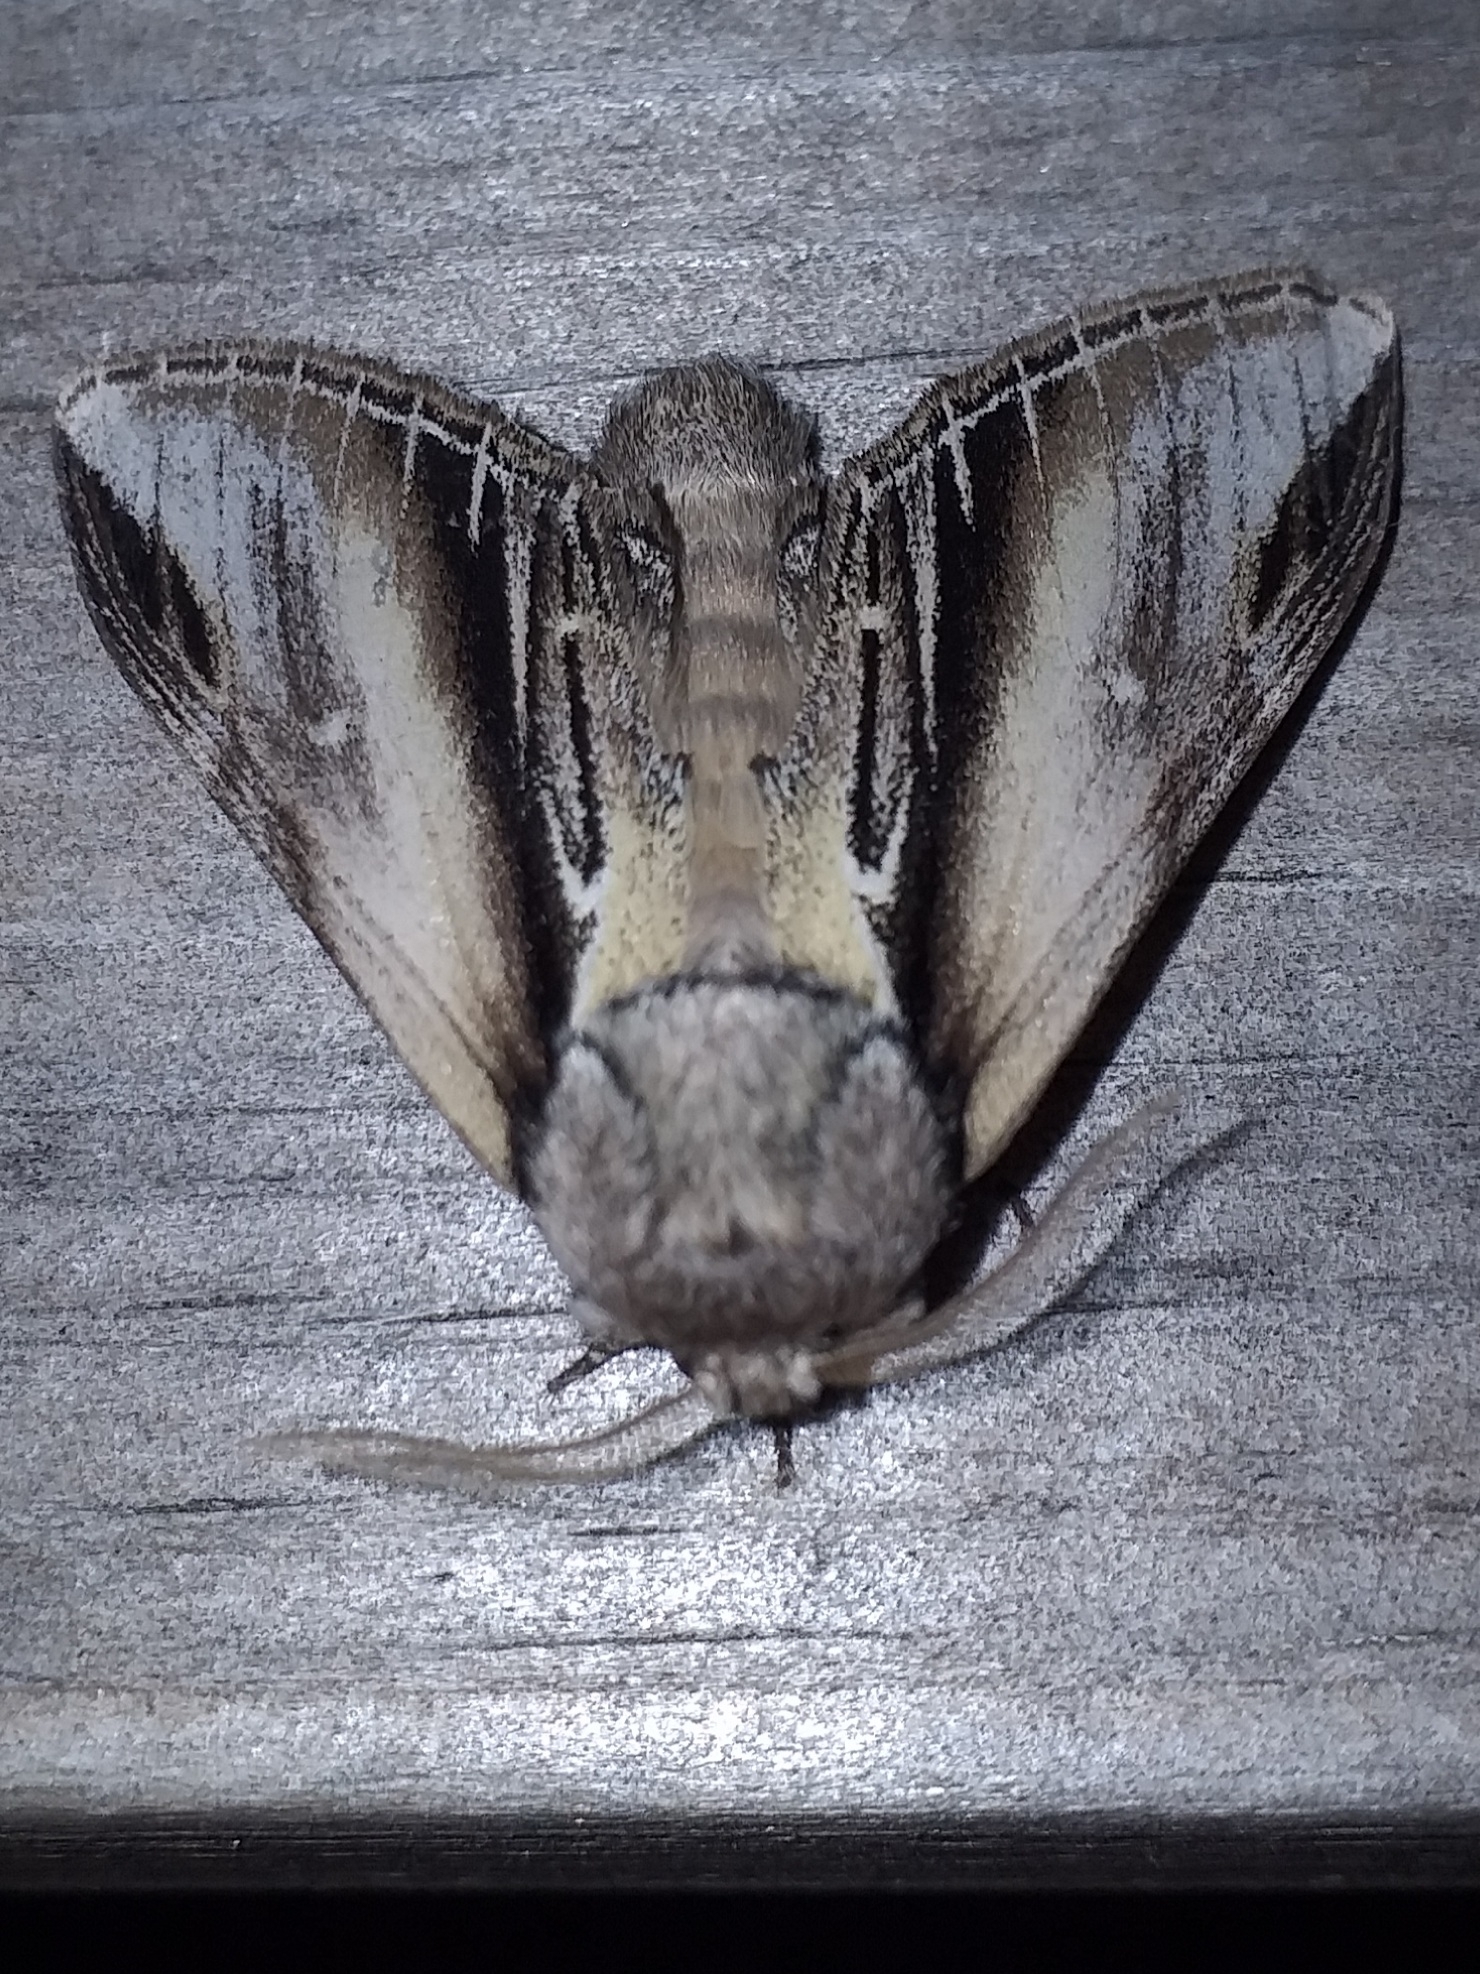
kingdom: Animalia
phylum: Arthropoda
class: Insecta
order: Lepidoptera
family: Notodontidae
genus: Pheosia
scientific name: Pheosia tremula
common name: Swallow prominent
